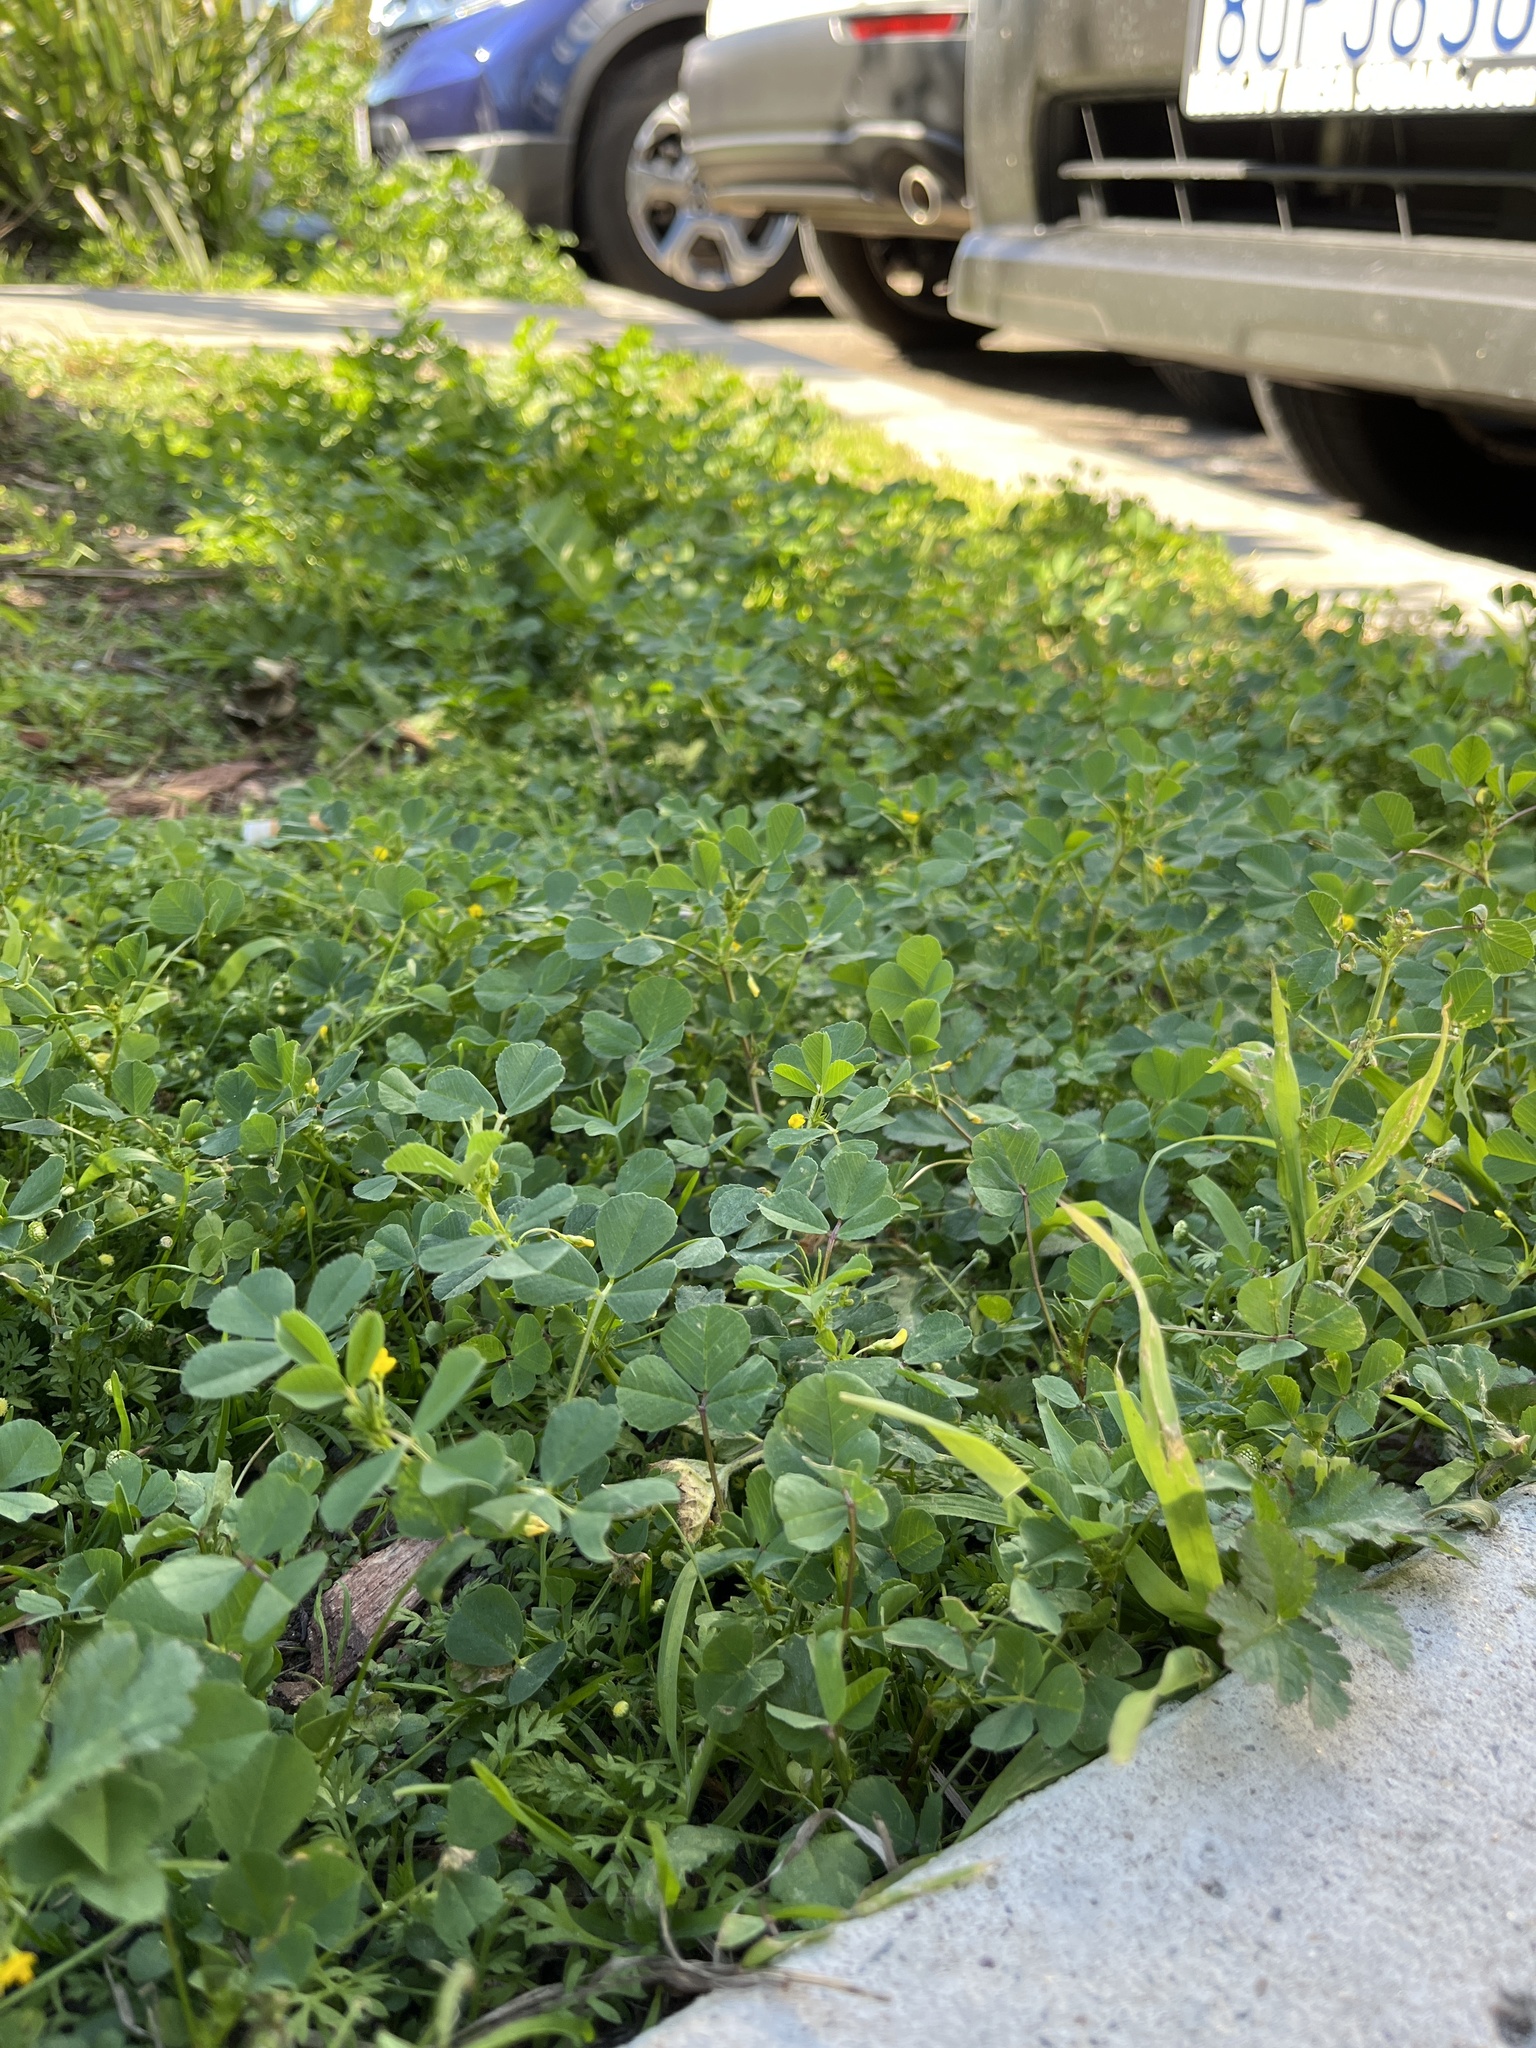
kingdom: Plantae
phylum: Tracheophyta
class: Magnoliopsida
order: Fabales
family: Fabaceae
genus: Medicago
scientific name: Medicago polymorpha
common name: Burclover
